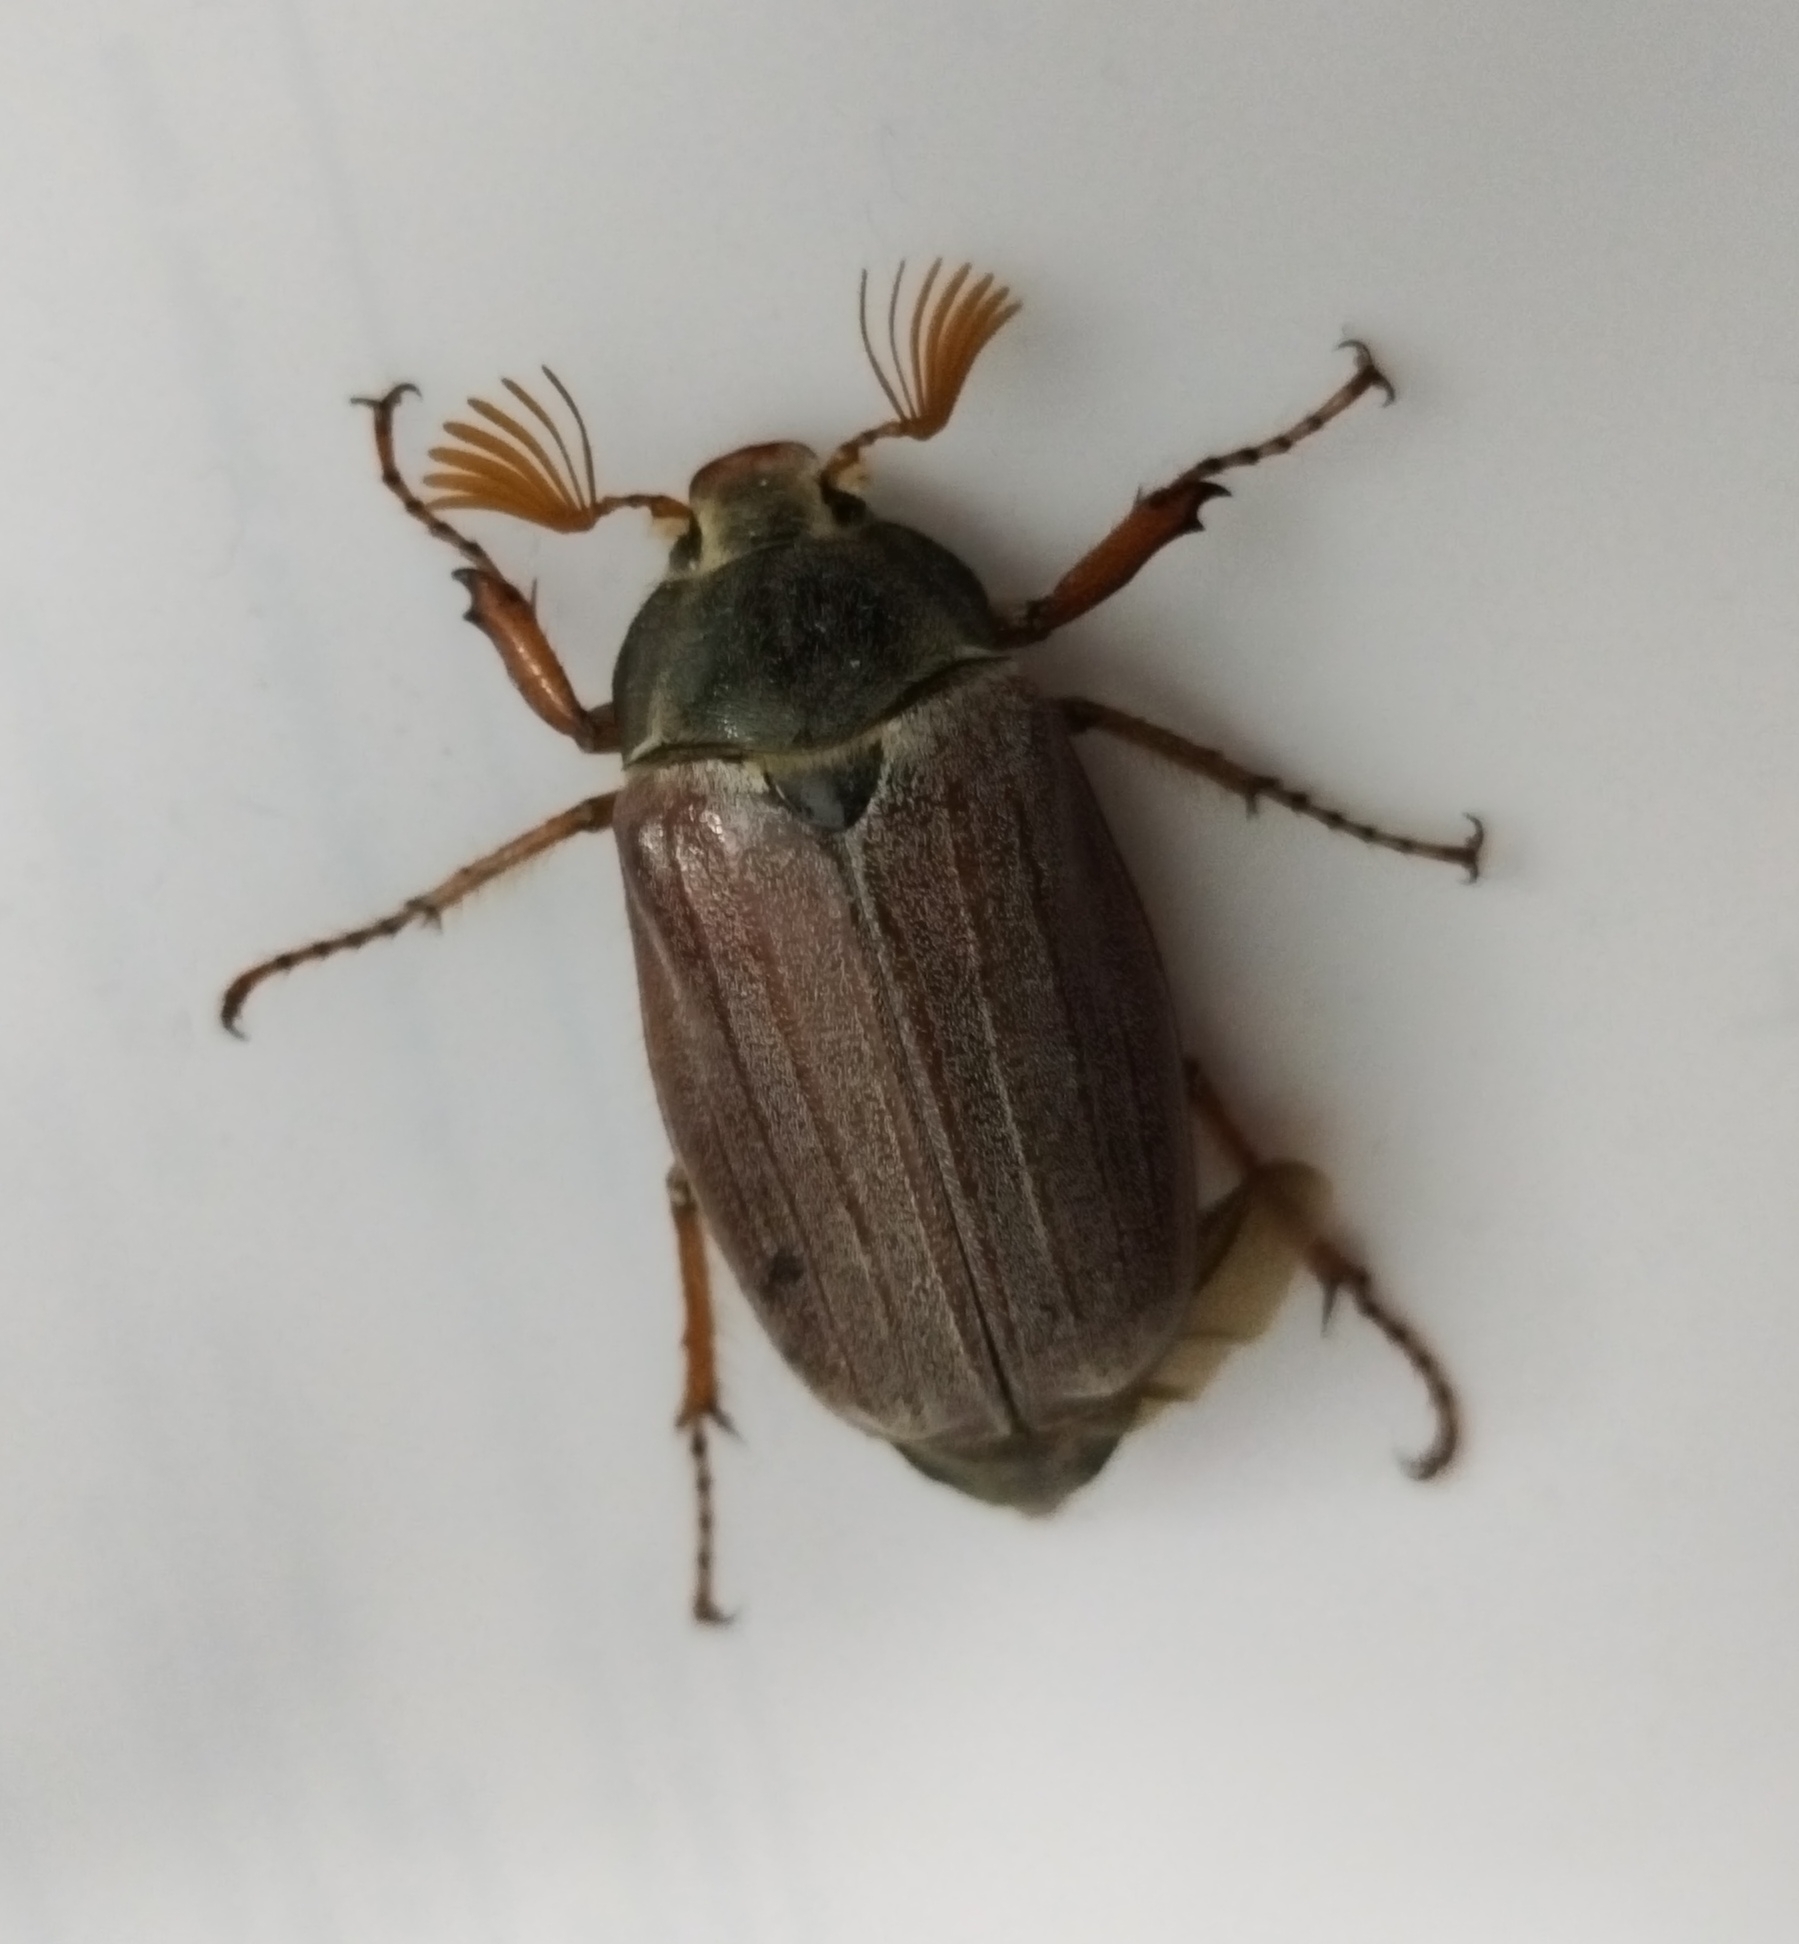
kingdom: Animalia
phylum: Arthropoda
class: Insecta
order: Coleoptera
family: Scarabaeidae
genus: Melolontha
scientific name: Melolontha melolontha
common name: Cockchafer maybeetle
